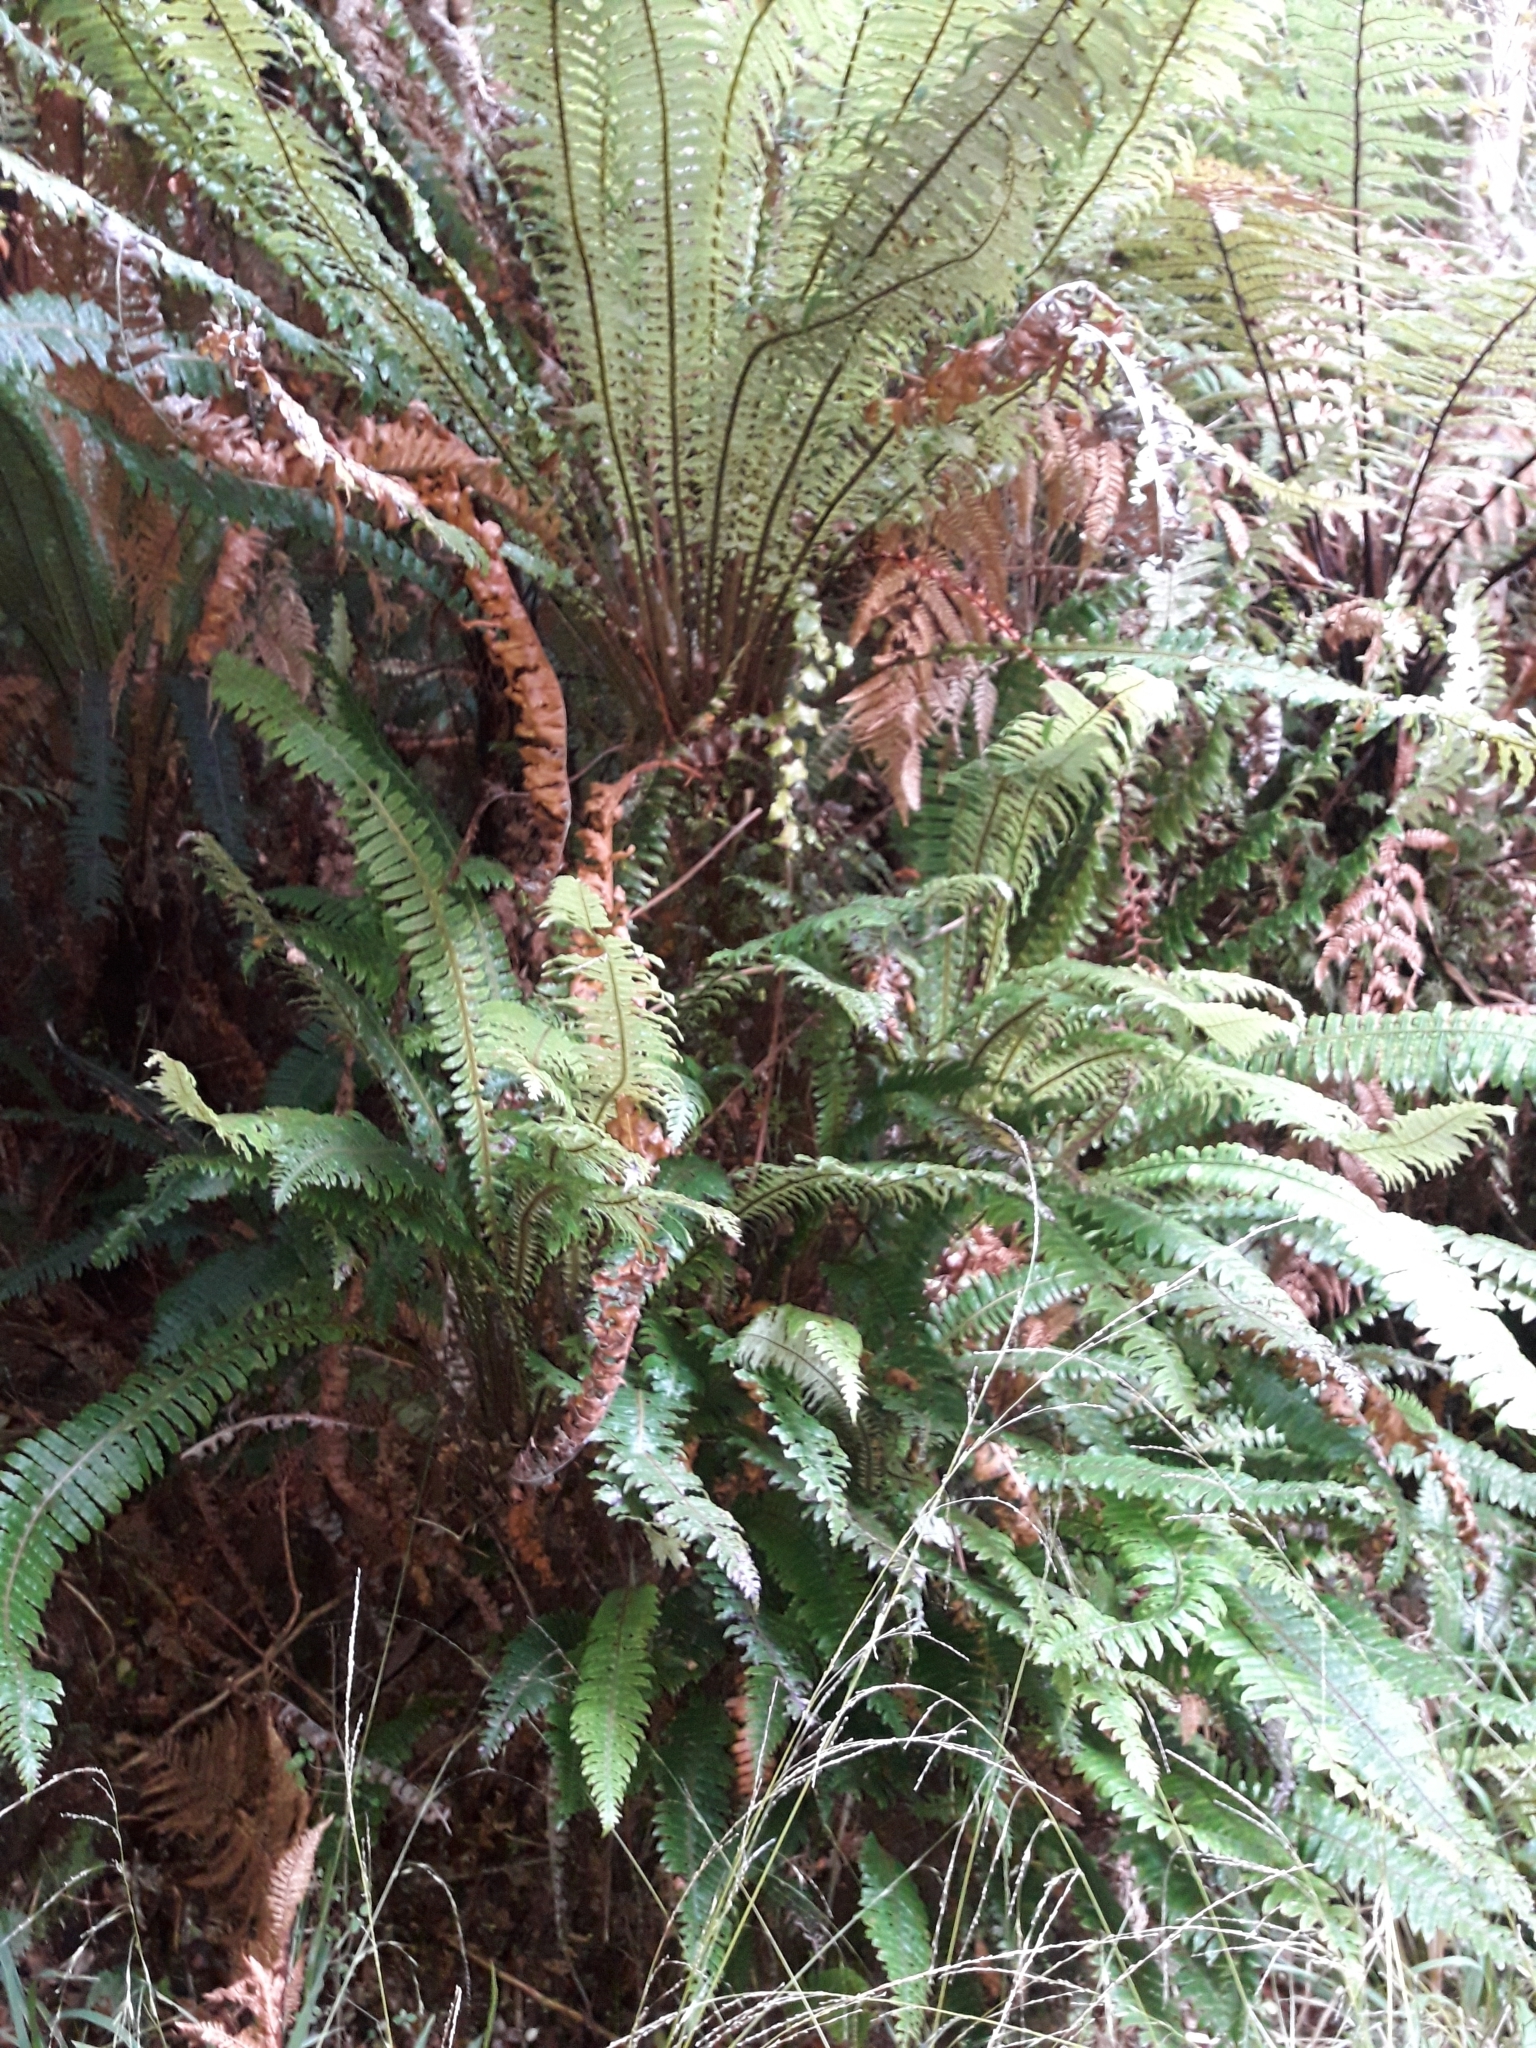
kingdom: Plantae
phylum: Tracheophyta
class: Polypodiopsida
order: Polypodiales
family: Blechnaceae
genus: Lomaria
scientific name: Lomaria discolor
